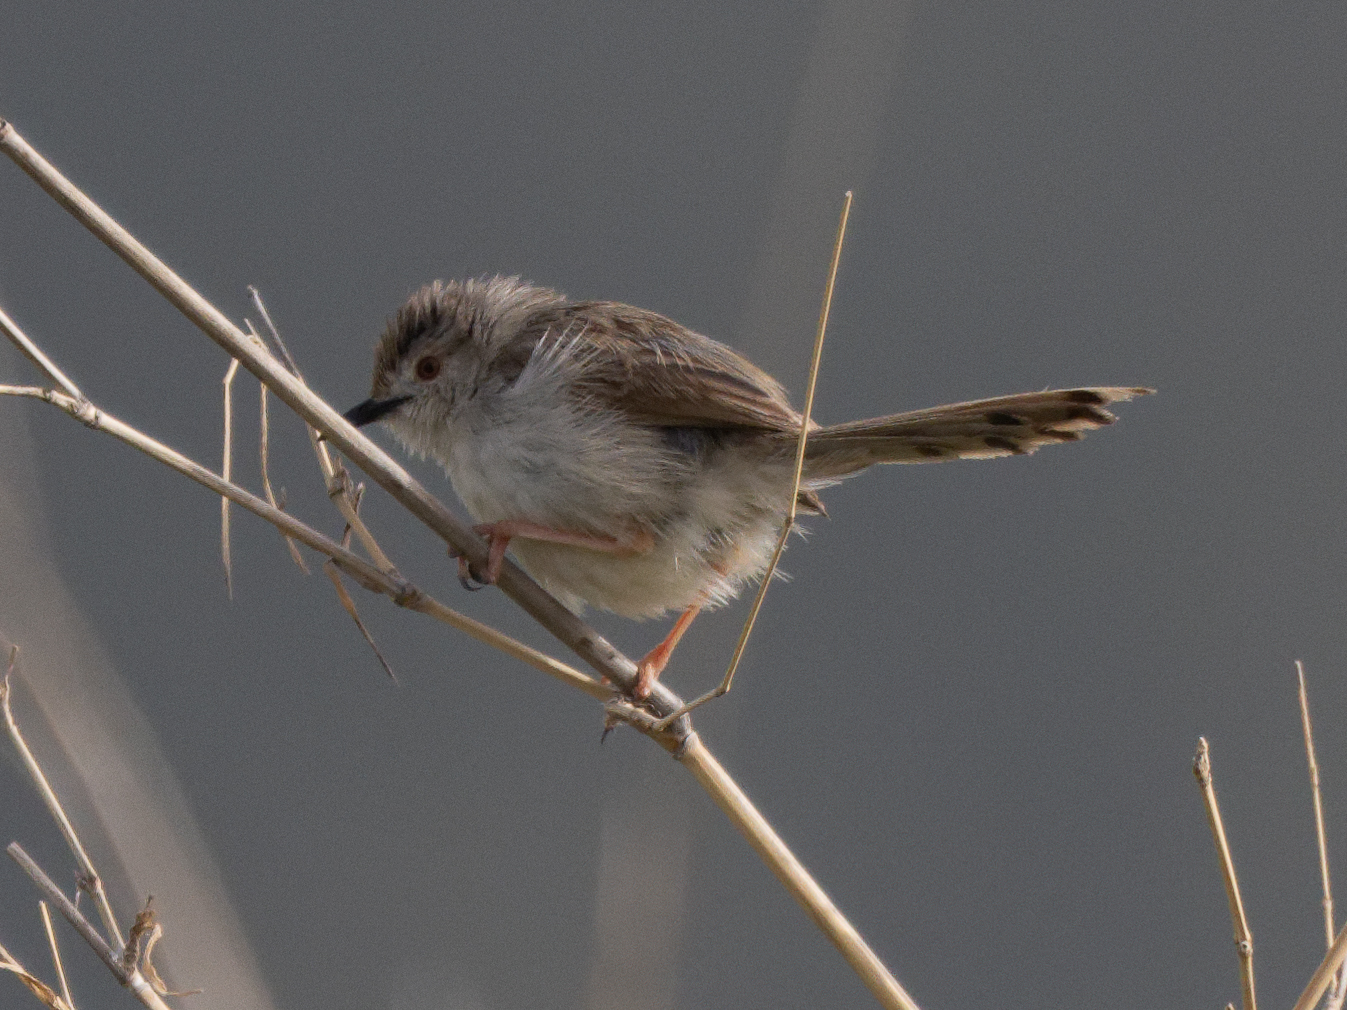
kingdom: Animalia
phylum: Chordata
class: Aves
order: Passeriformes
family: Cisticolidae
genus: Prinia
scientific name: Prinia gracilis
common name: Graceful prinia
